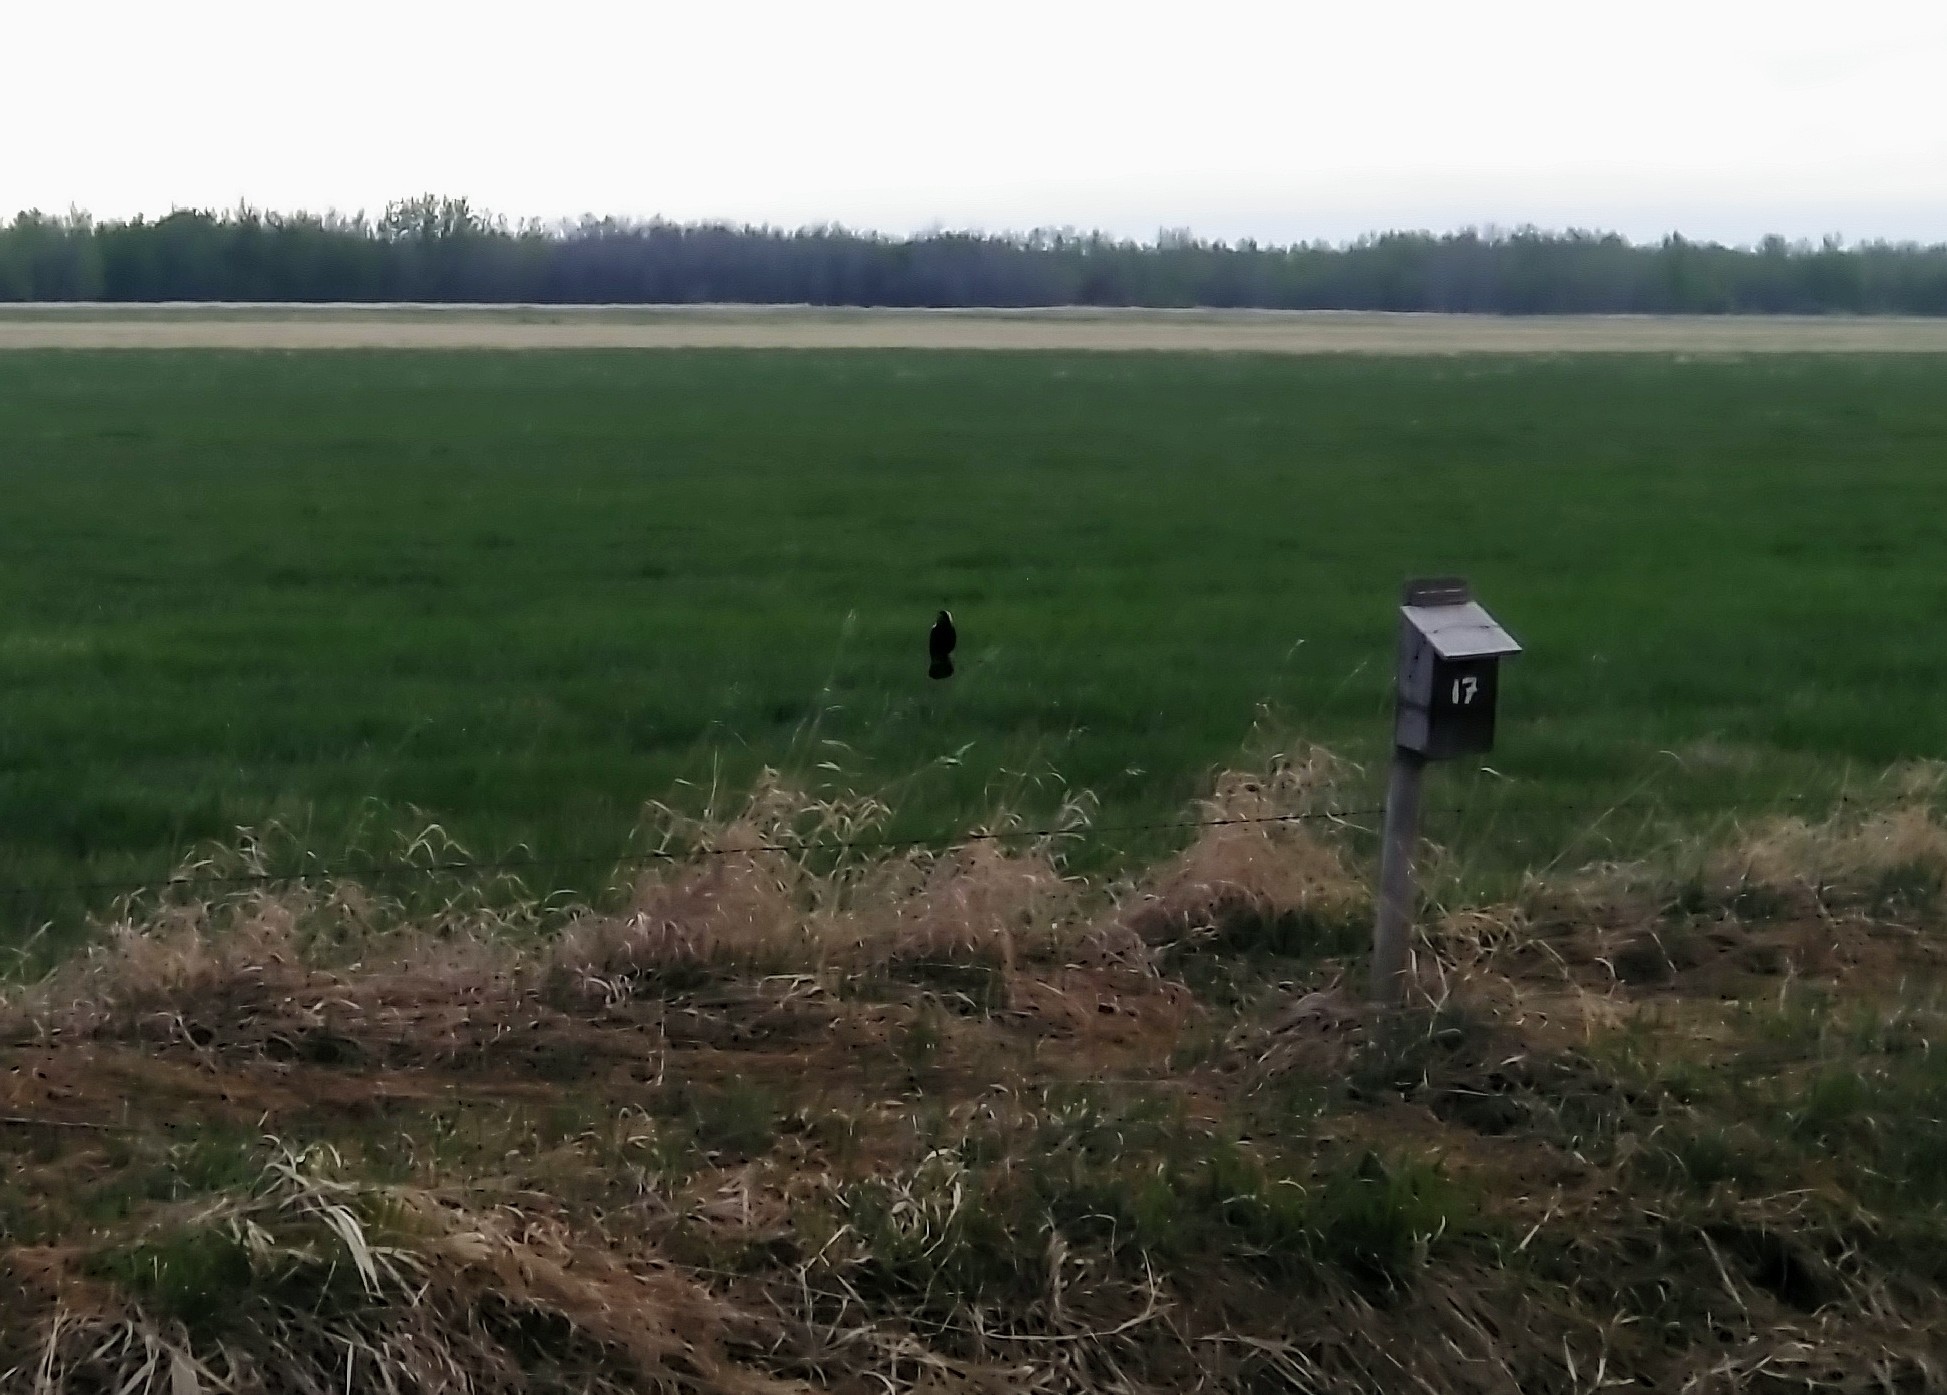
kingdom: Animalia
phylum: Chordata
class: Aves
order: Passeriformes
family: Icteridae
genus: Dolichonyx
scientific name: Dolichonyx oryzivorus
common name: Bobolink
